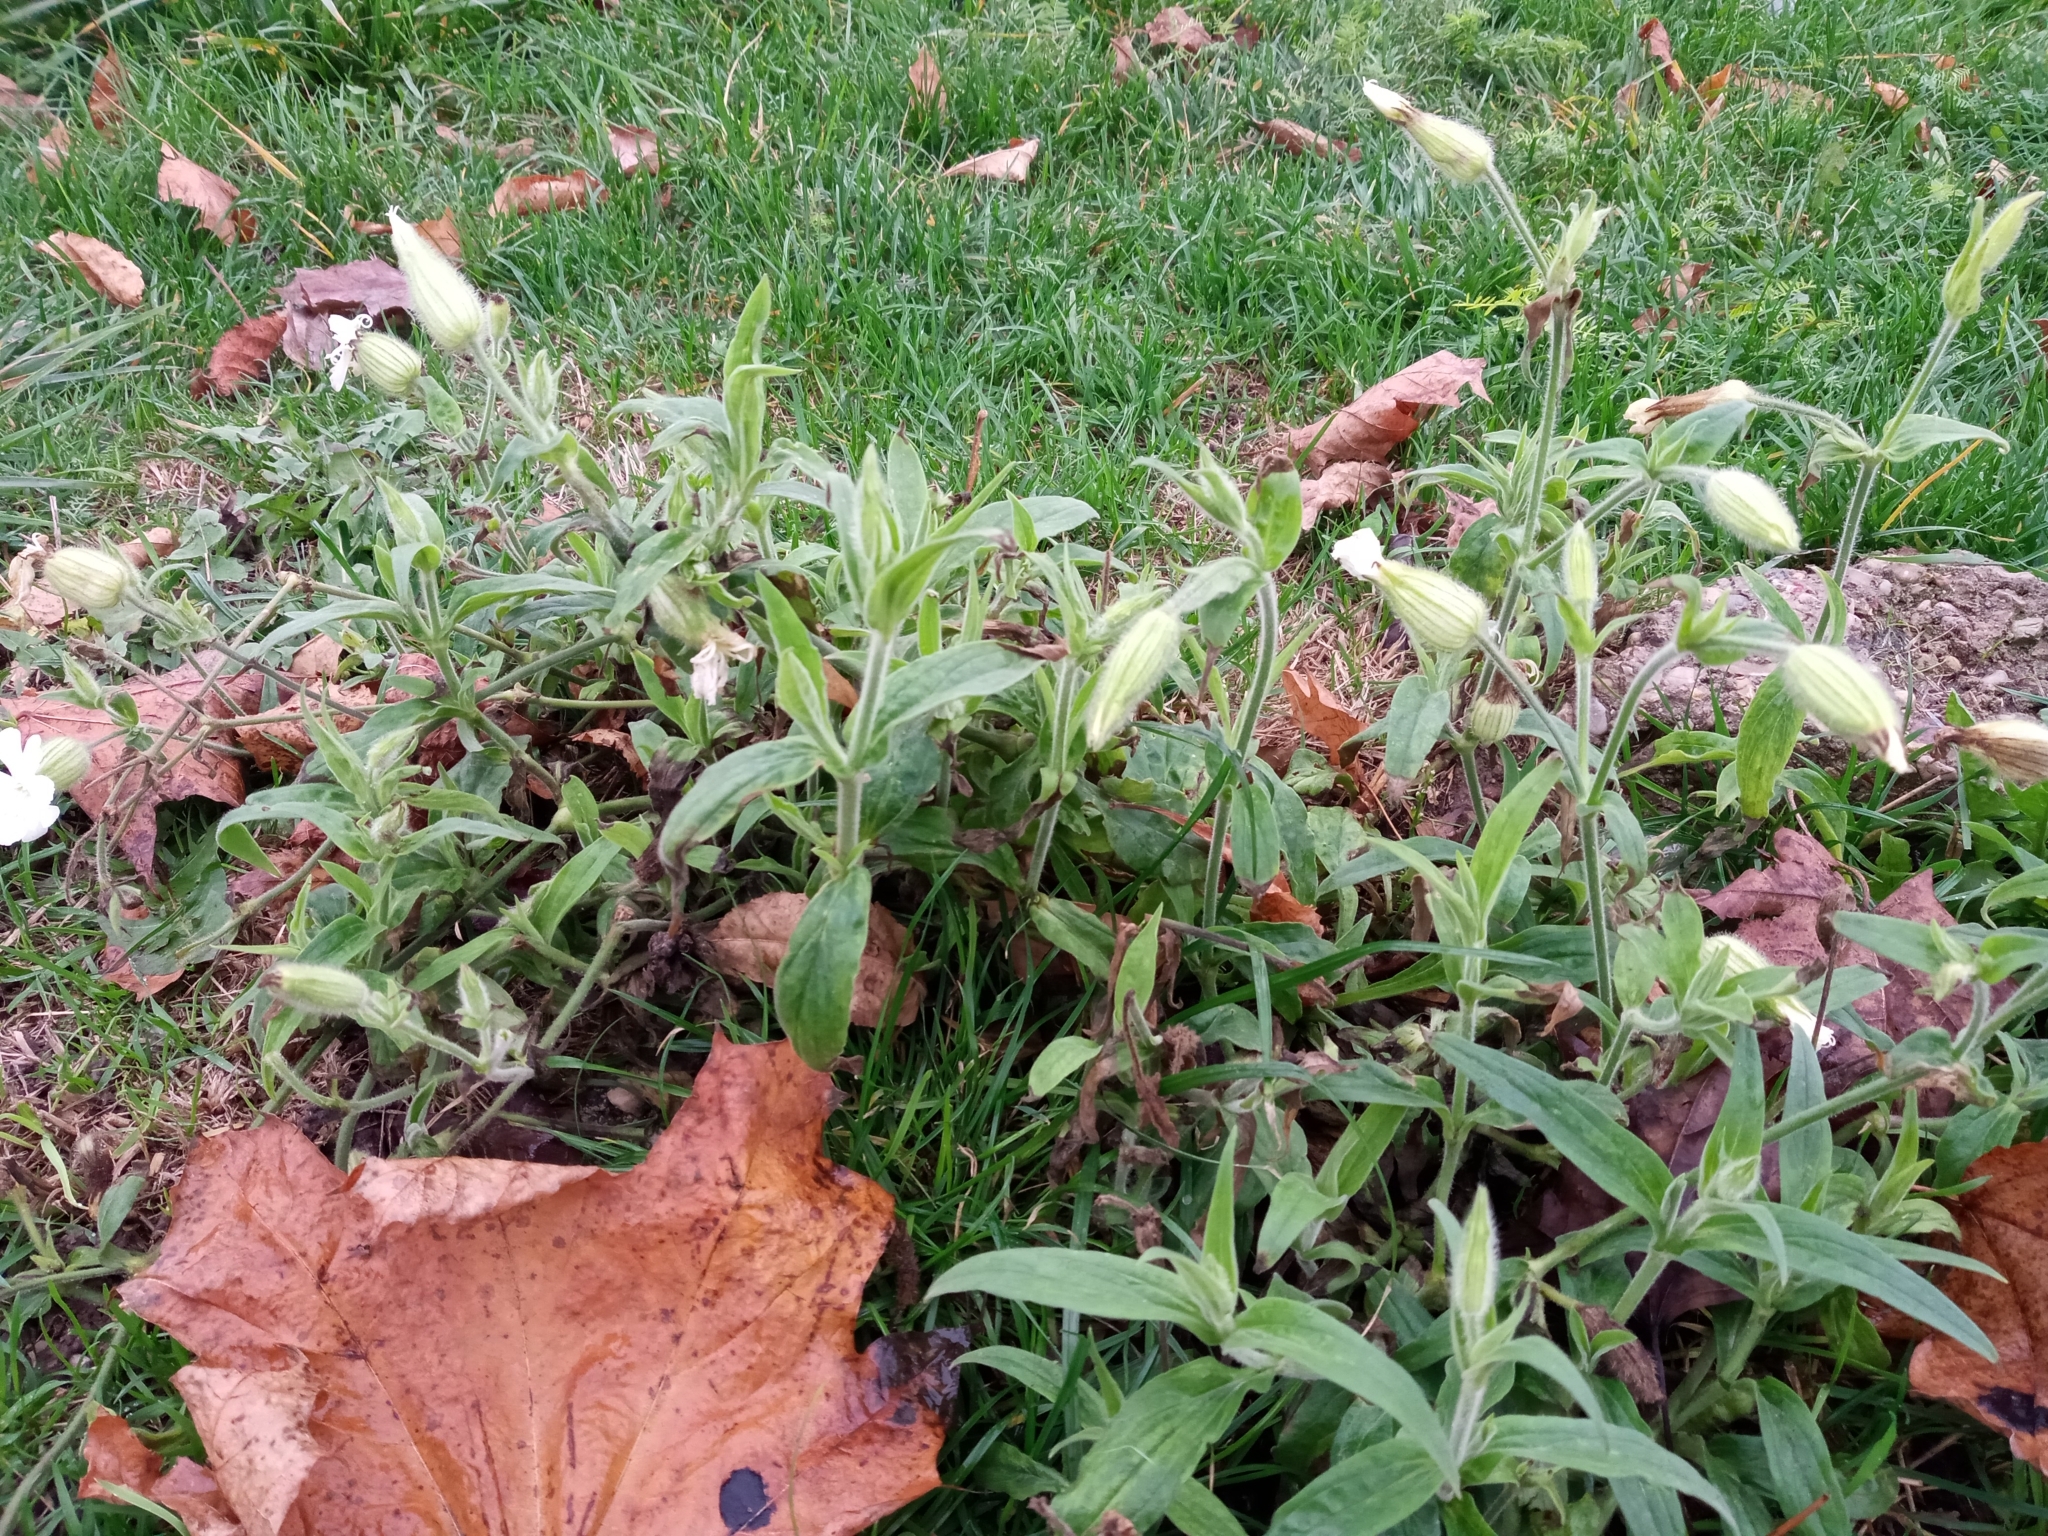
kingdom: Plantae
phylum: Tracheophyta
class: Magnoliopsida
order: Caryophyllales
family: Caryophyllaceae
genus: Silene
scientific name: Silene latifolia
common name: White campion
